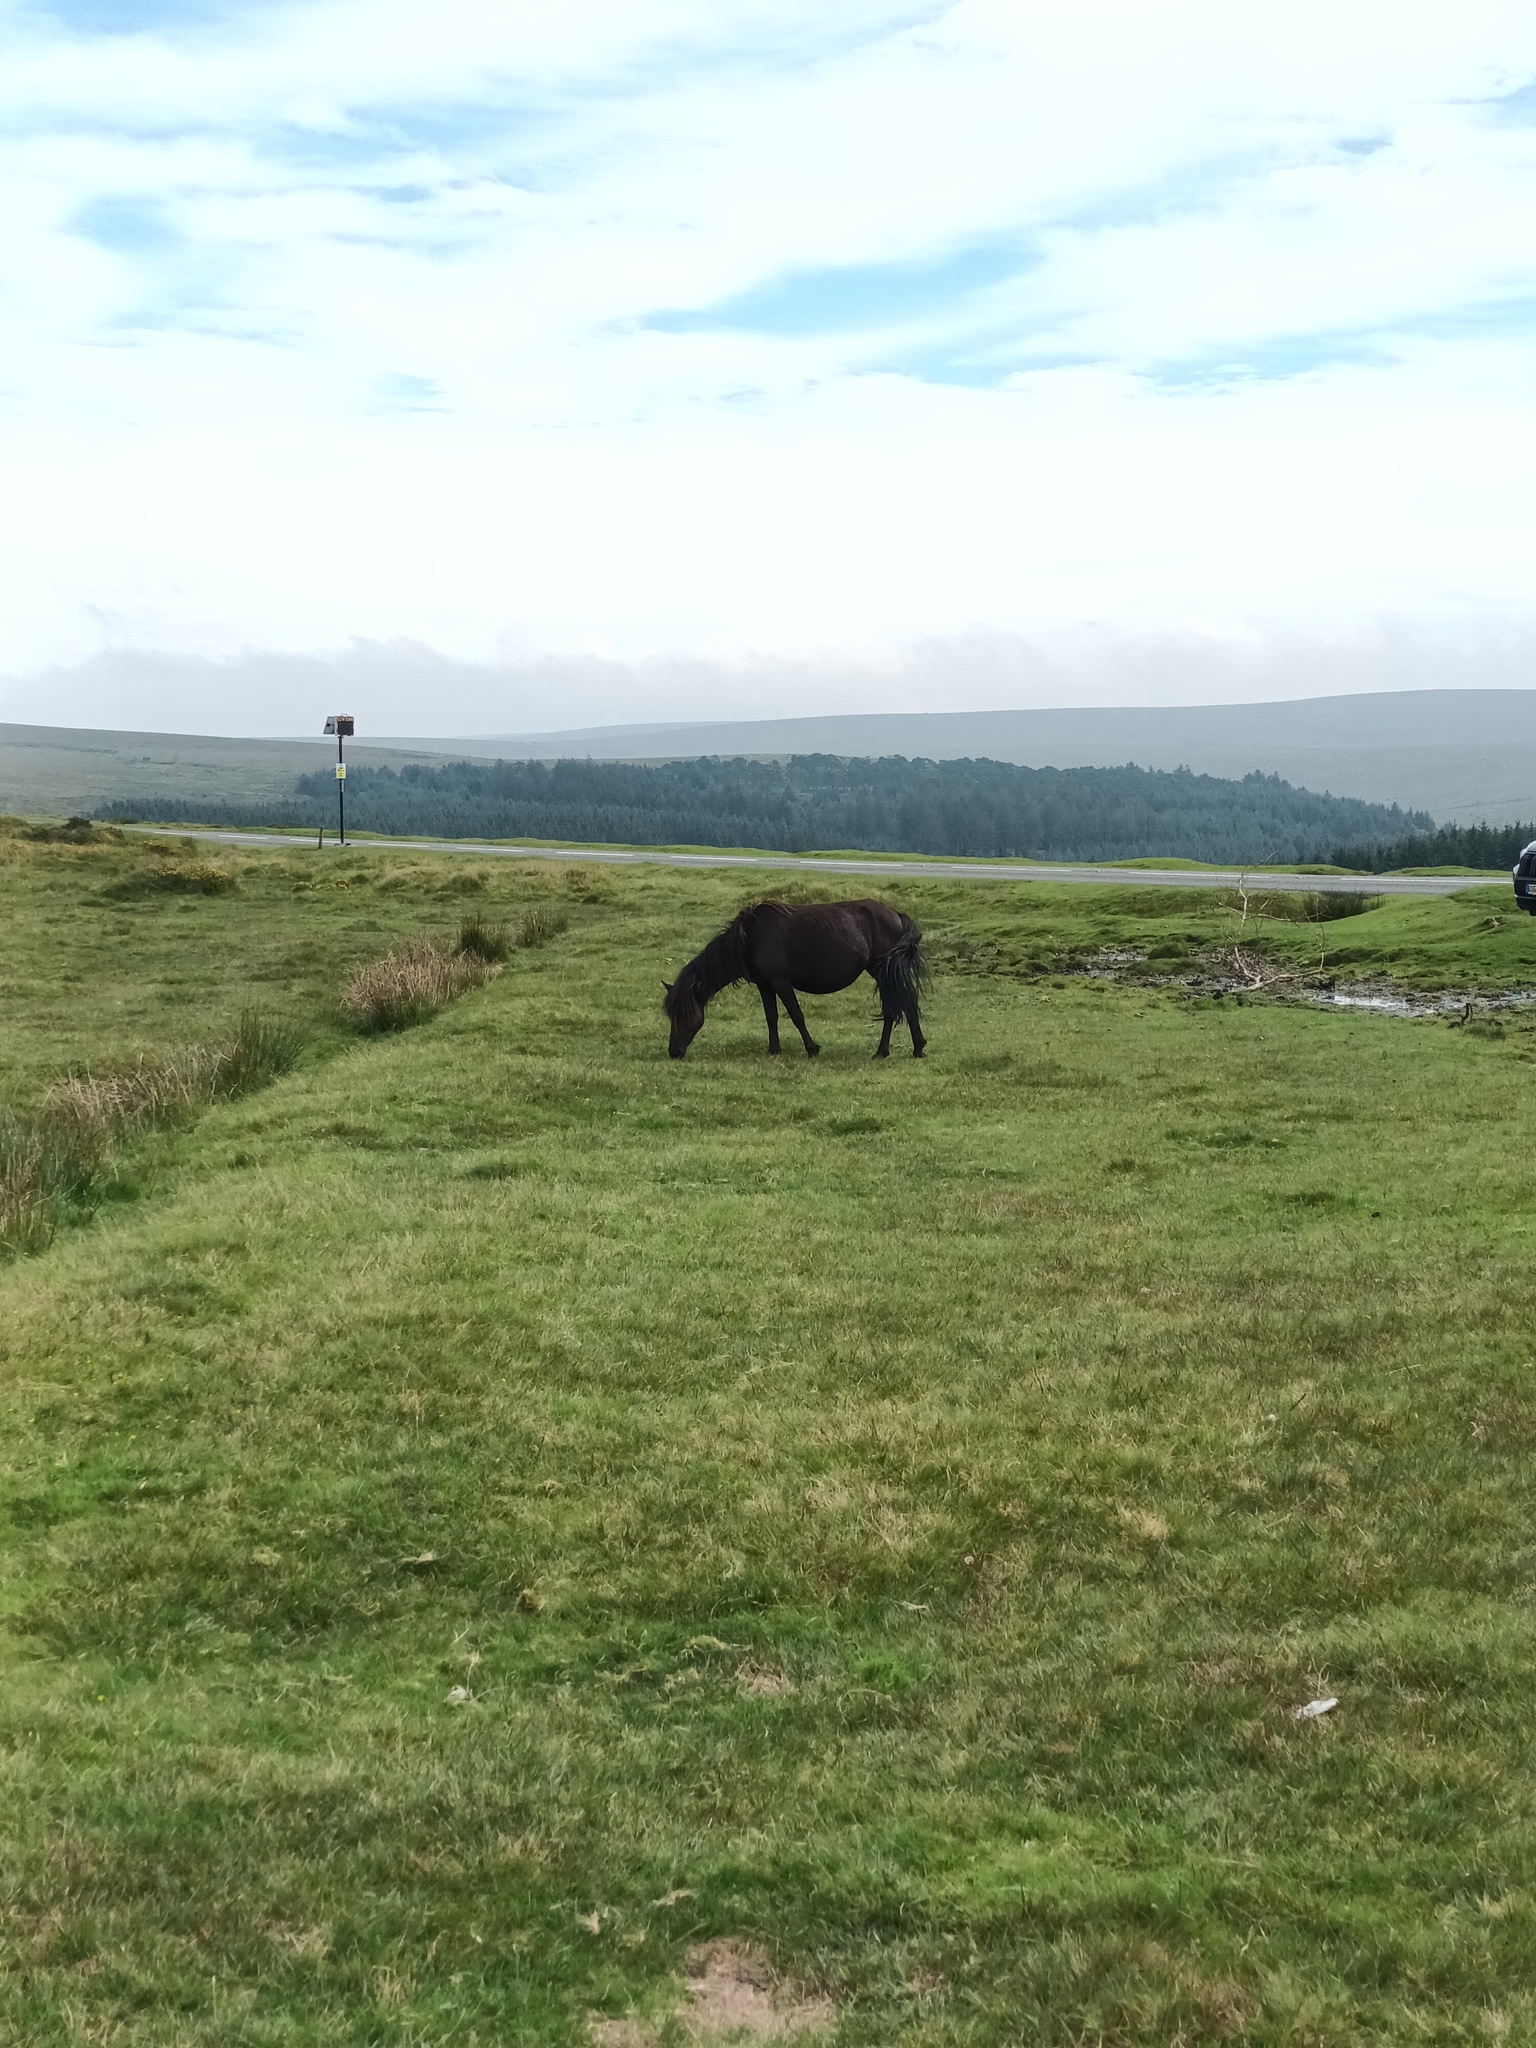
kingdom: Animalia
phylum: Chordata
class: Mammalia
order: Perissodactyla
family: Equidae
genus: Equus
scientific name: Equus caballus
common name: Horse
